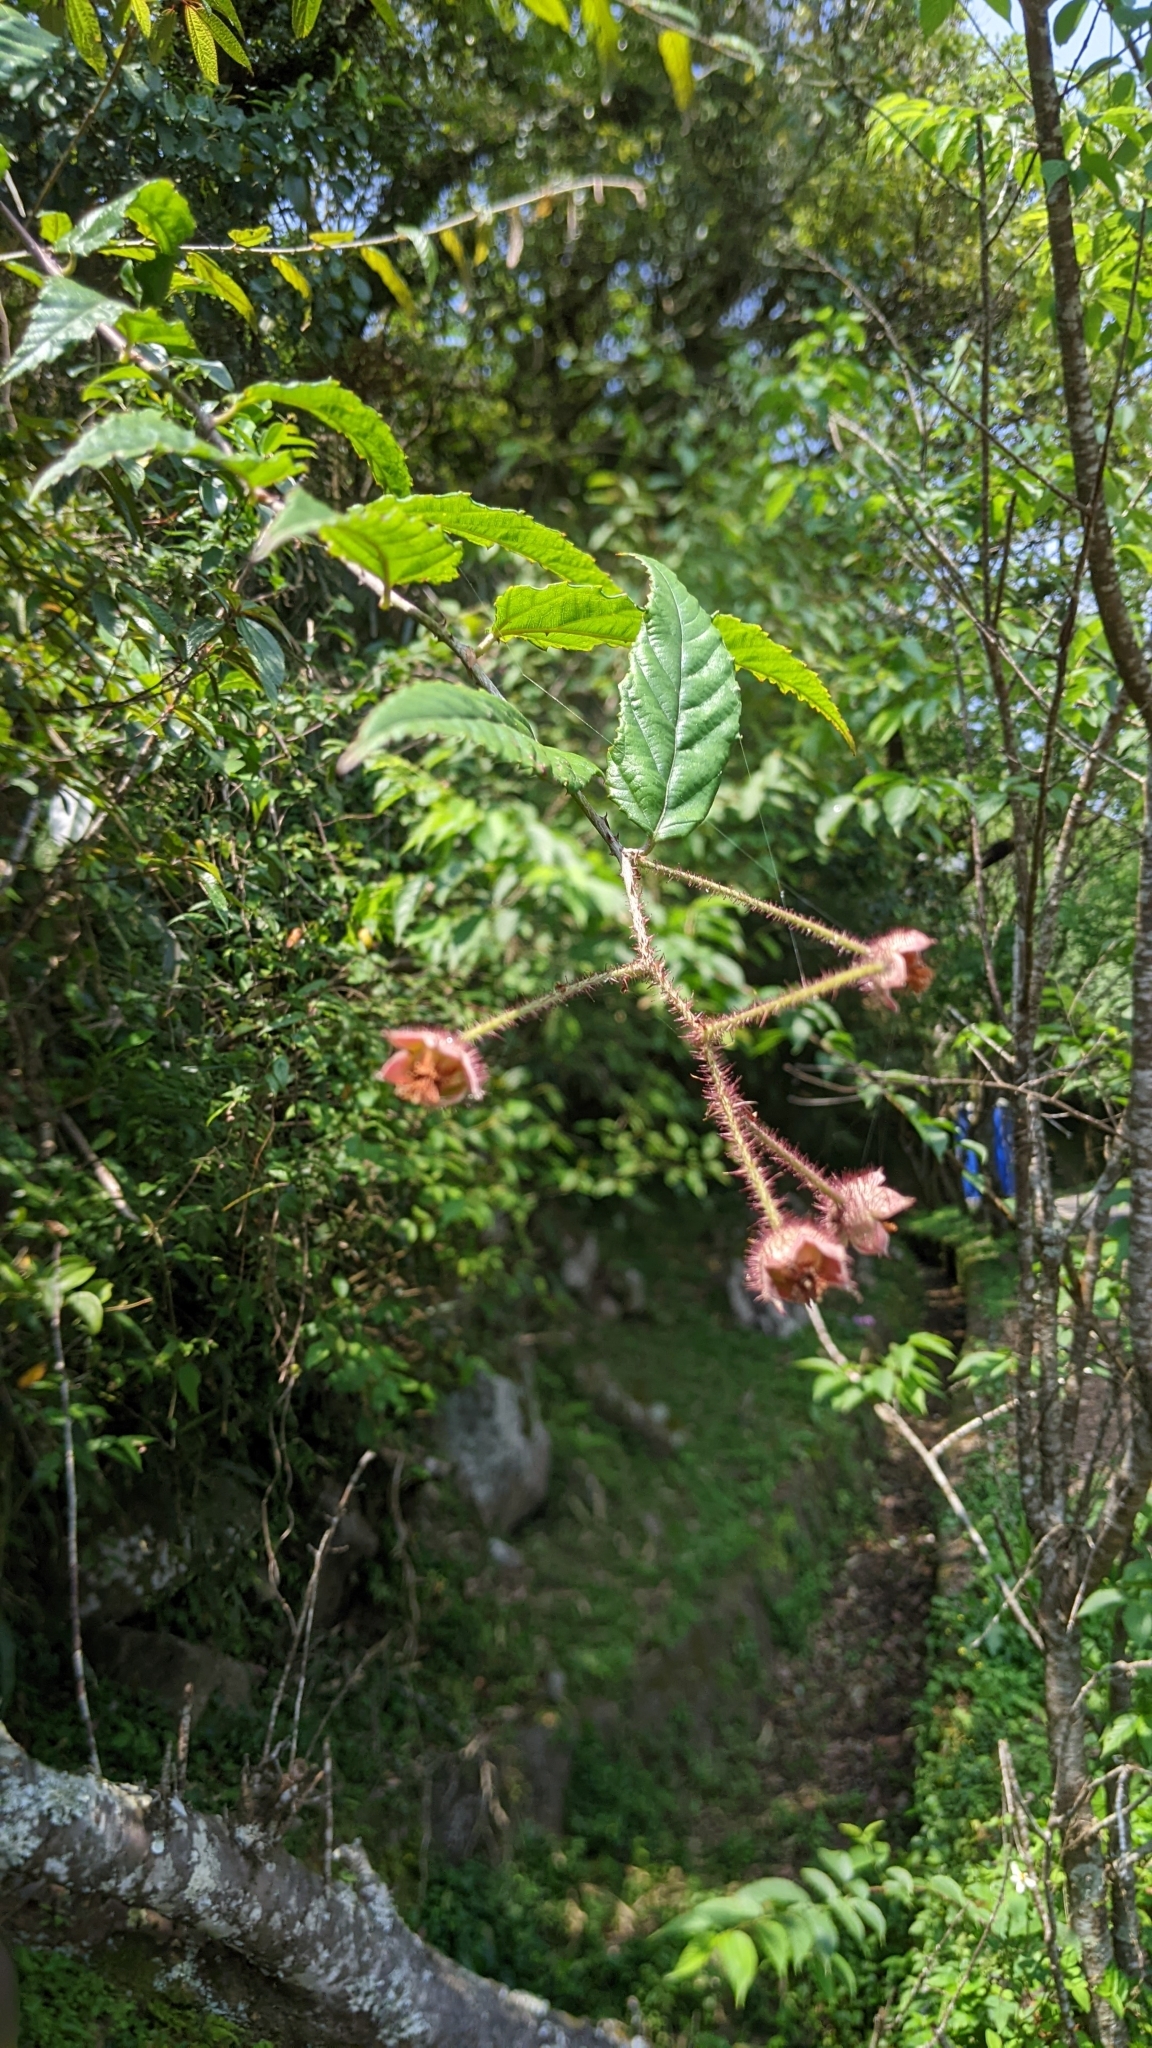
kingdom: Plantae
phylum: Tracheophyta
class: Magnoliopsida
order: Rosales
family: Rosaceae
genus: Rubus
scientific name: Rubus swinhoei
